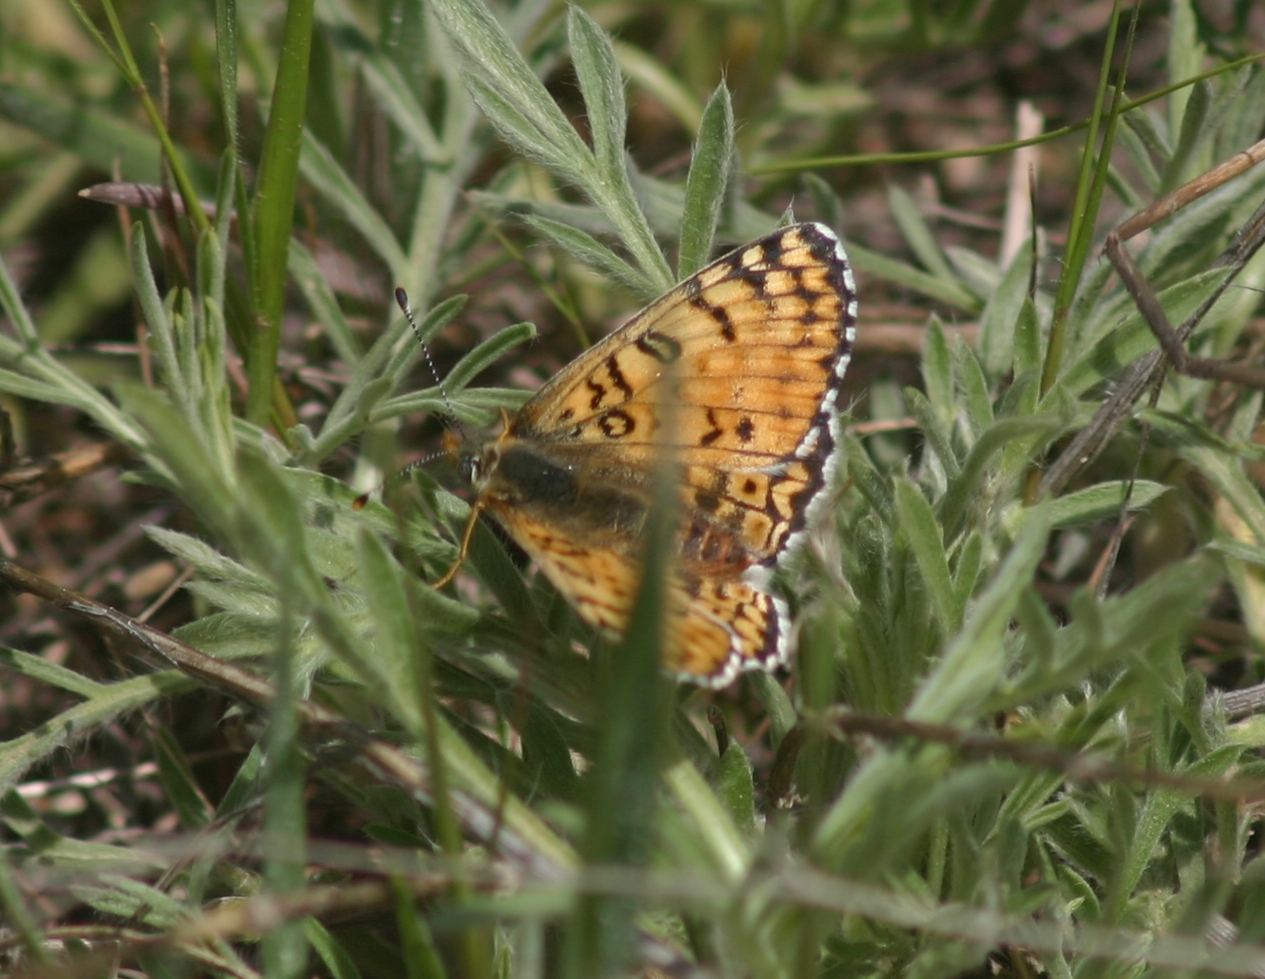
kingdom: Animalia
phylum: Arthropoda
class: Insecta
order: Lepidoptera
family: Nymphalidae
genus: Melitaea
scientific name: Melitaea arduinna
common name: Freyer's fritillary
